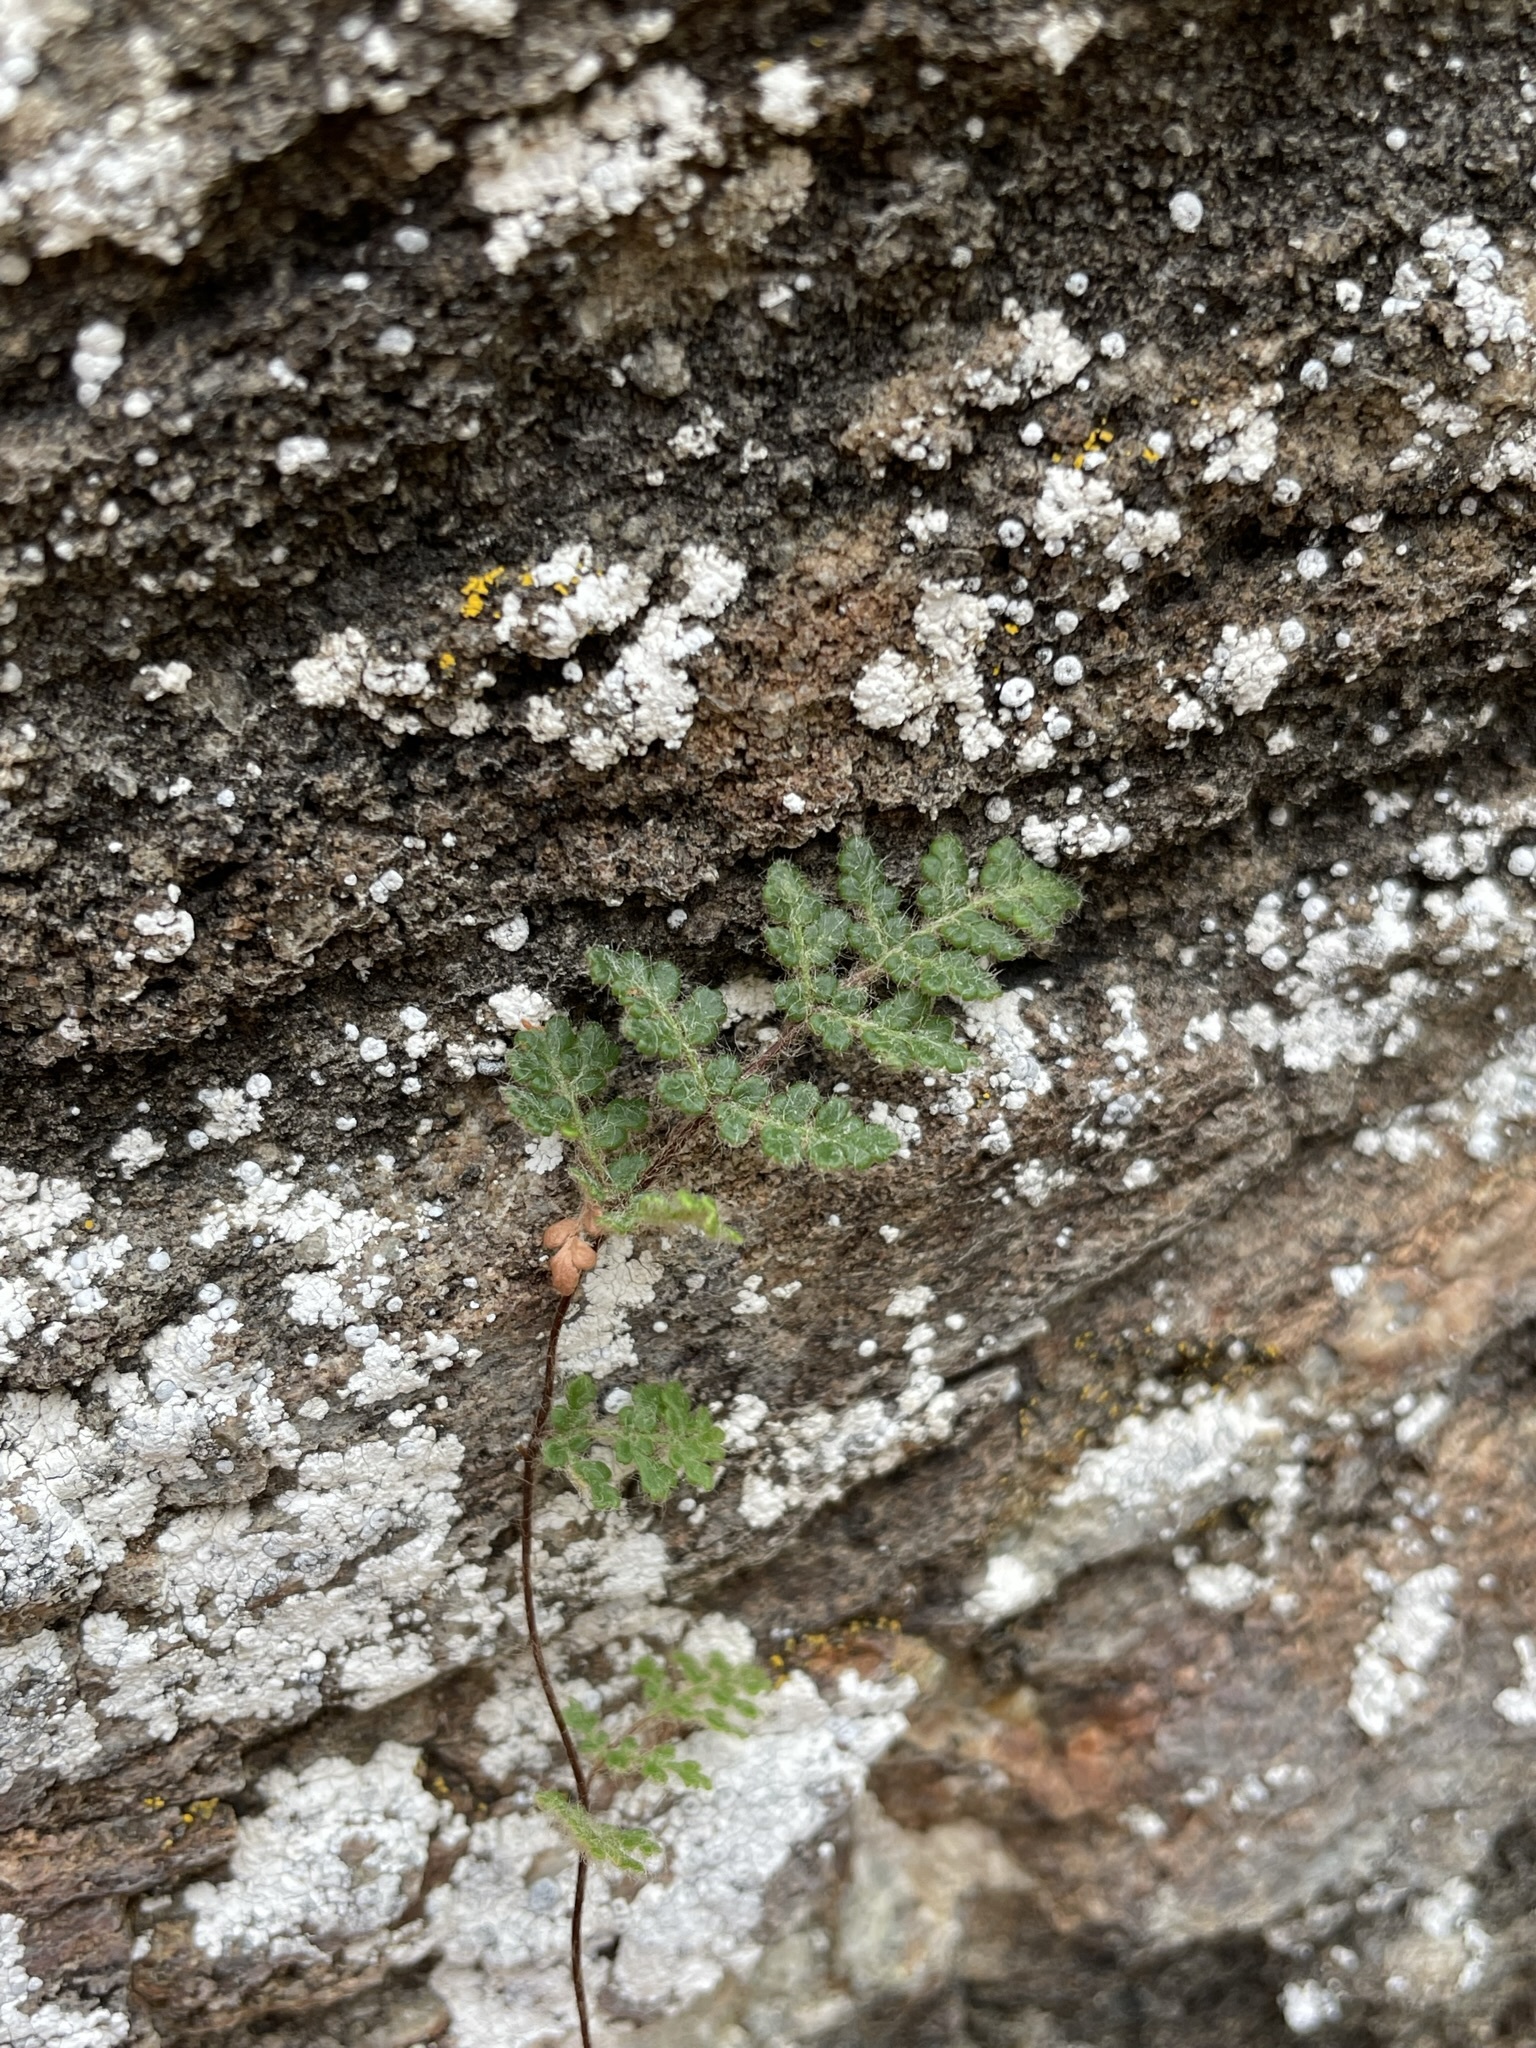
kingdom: Plantae
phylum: Tracheophyta
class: Polypodiopsida
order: Polypodiales
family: Pteridaceae
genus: Myriopteris
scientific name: Myriopteris gracilis
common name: Fee's lip fern
